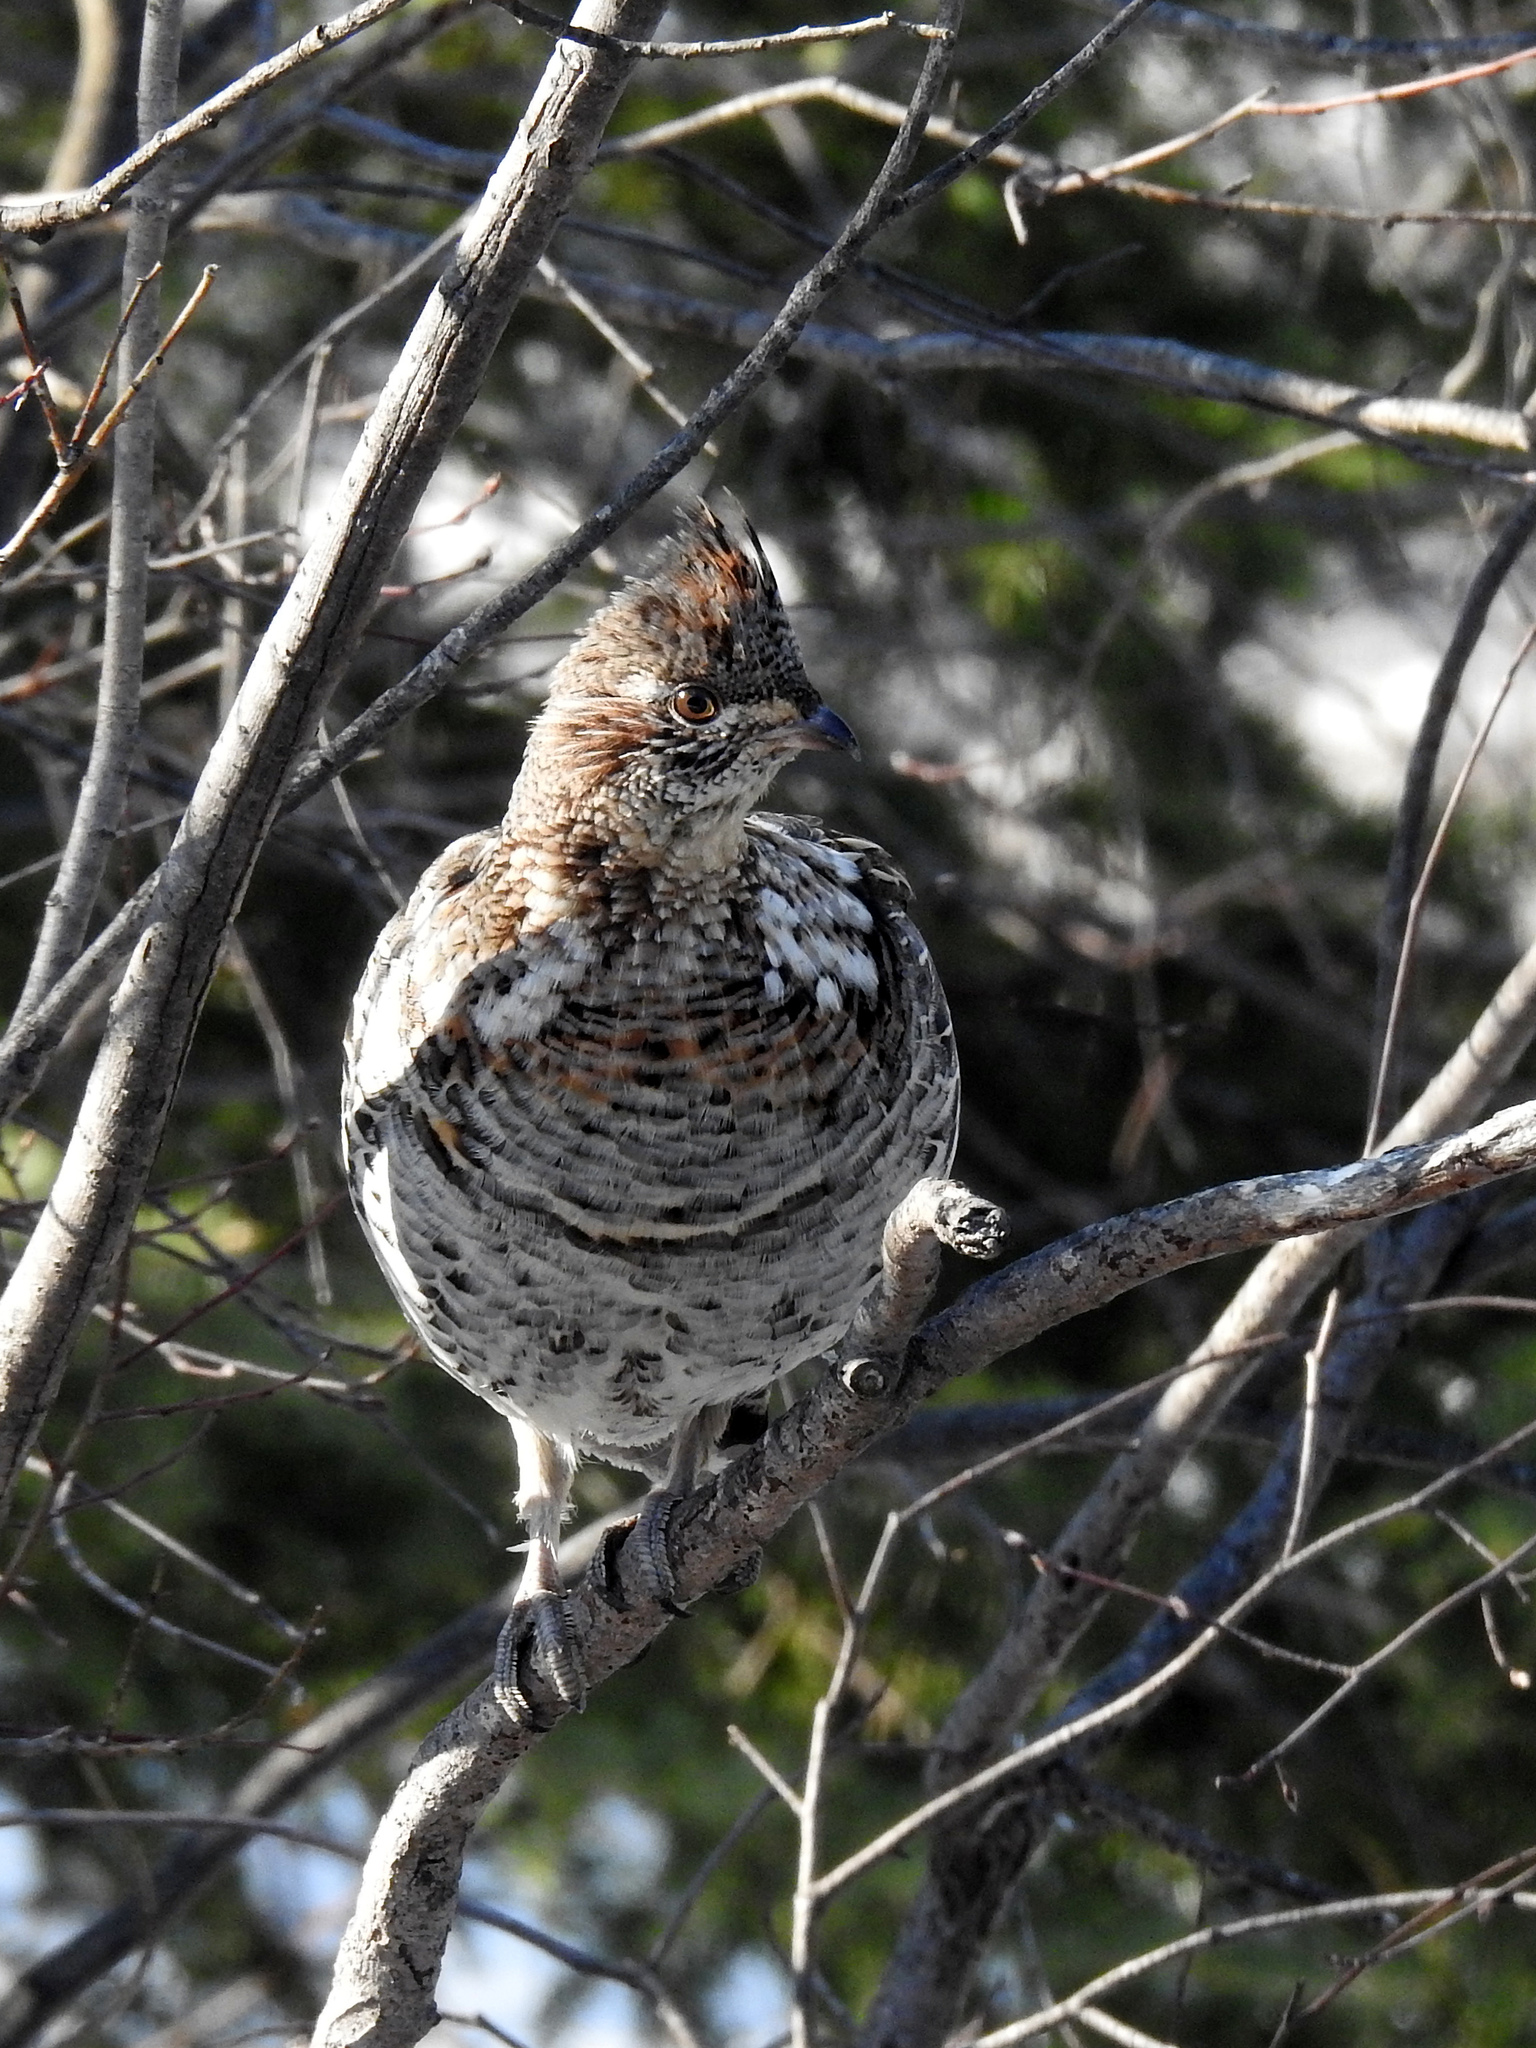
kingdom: Animalia
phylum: Chordata
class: Aves
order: Galliformes
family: Phasianidae
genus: Bonasa
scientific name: Bonasa umbellus
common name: Ruffed grouse
